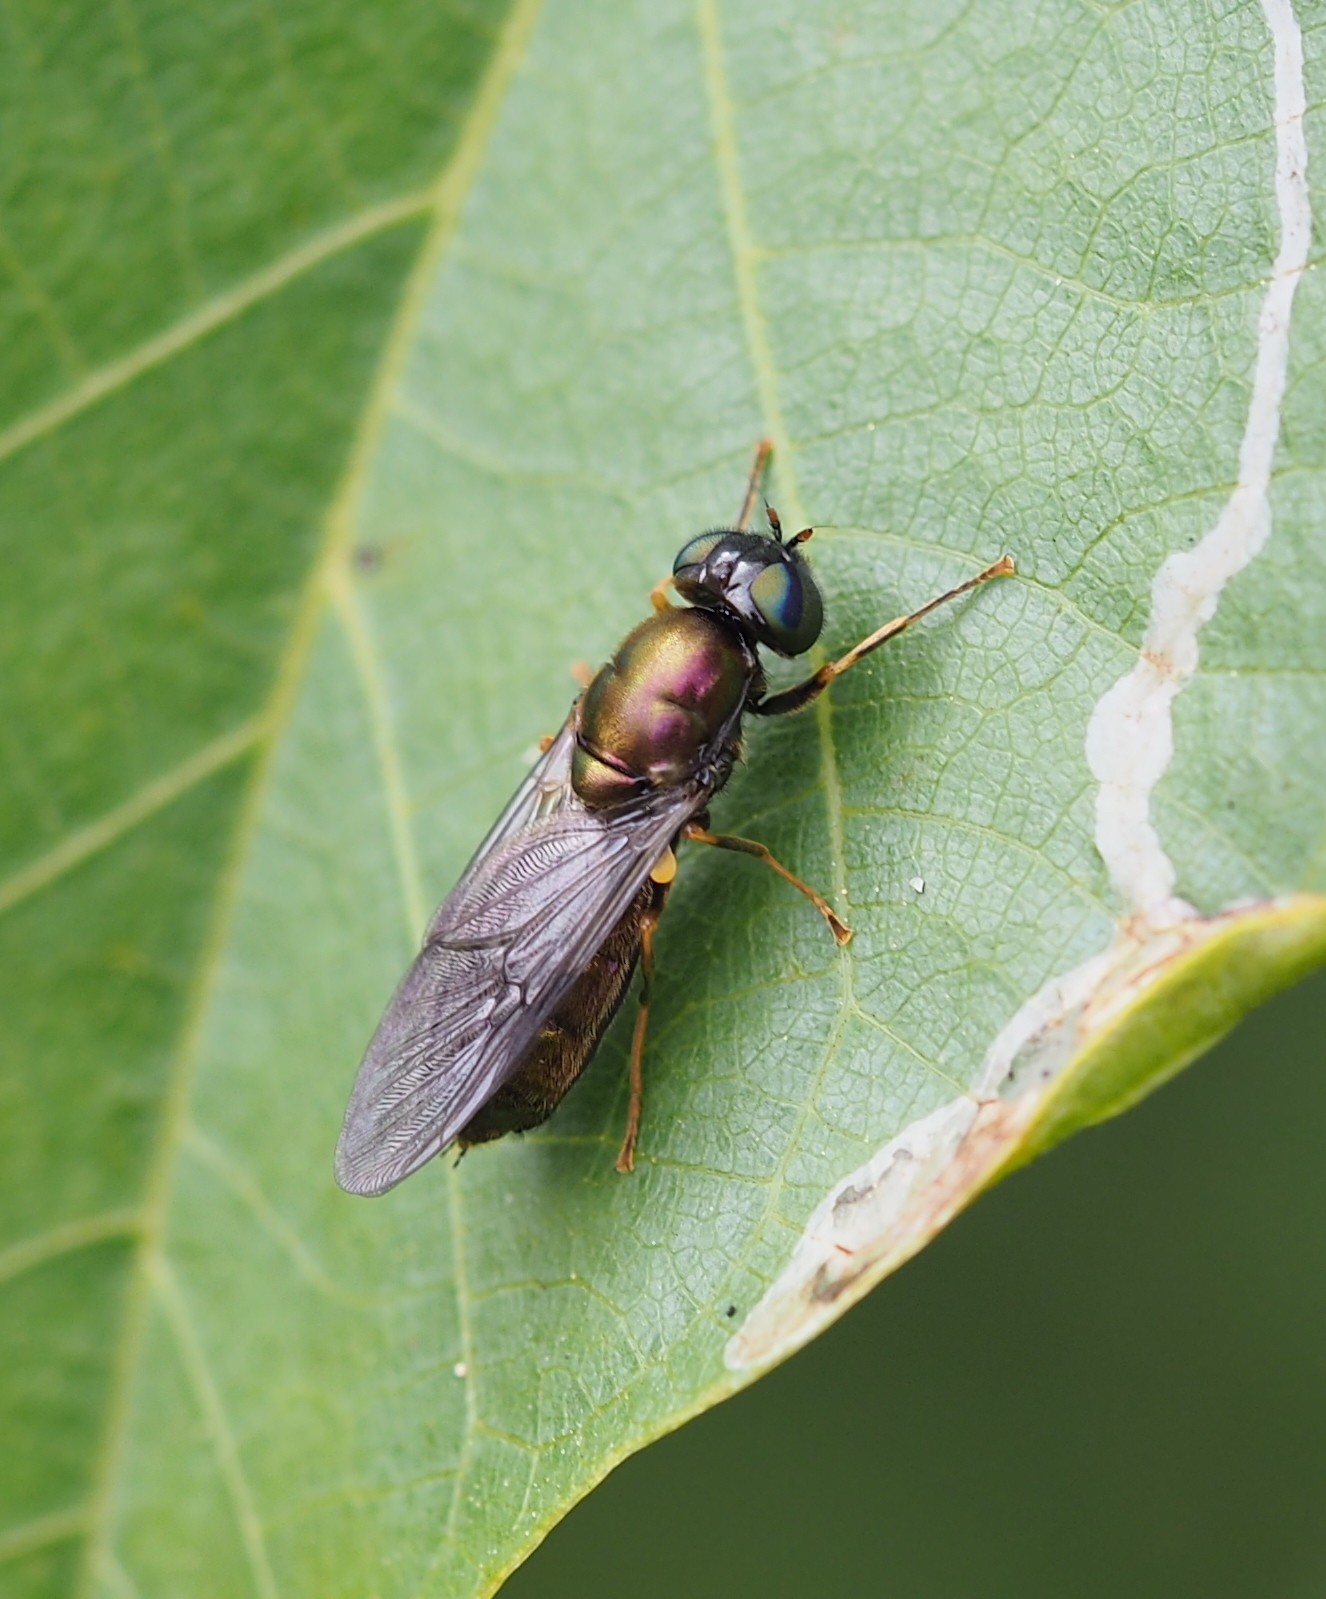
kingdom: Animalia
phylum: Arthropoda
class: Insecta
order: Diptera
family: Stratiomyidae
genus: Chloromyia
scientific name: Chloromyia speciosa
